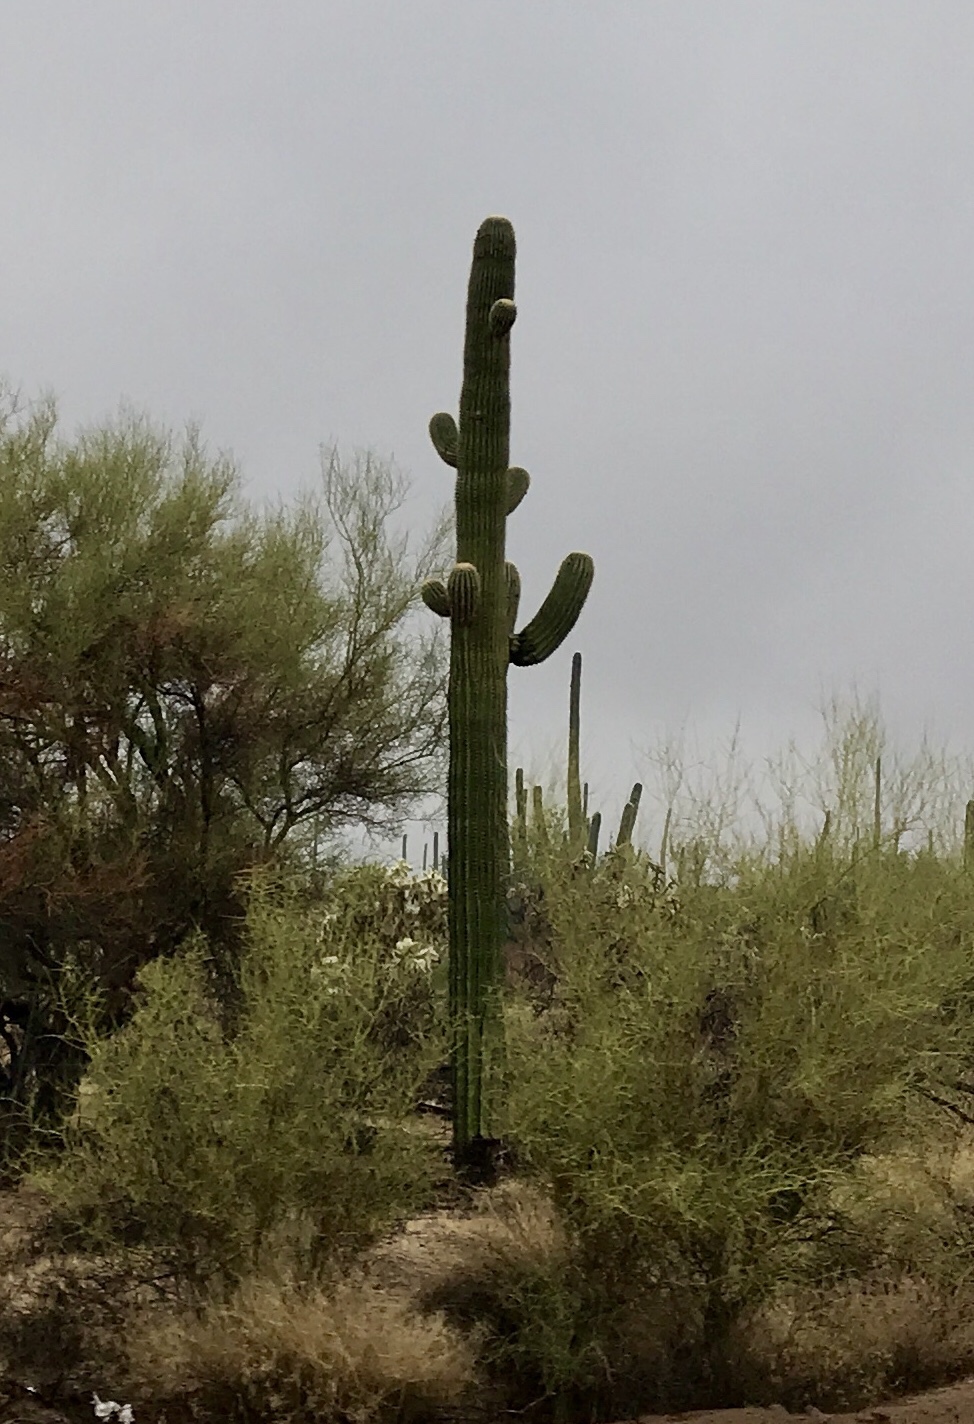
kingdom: Plantae
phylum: Tracheophyta
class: Magnoliopsida
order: Caryophyllales
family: Cactaceae
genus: Carnegiea
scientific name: Carnegiea gigantea
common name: Saguaro
